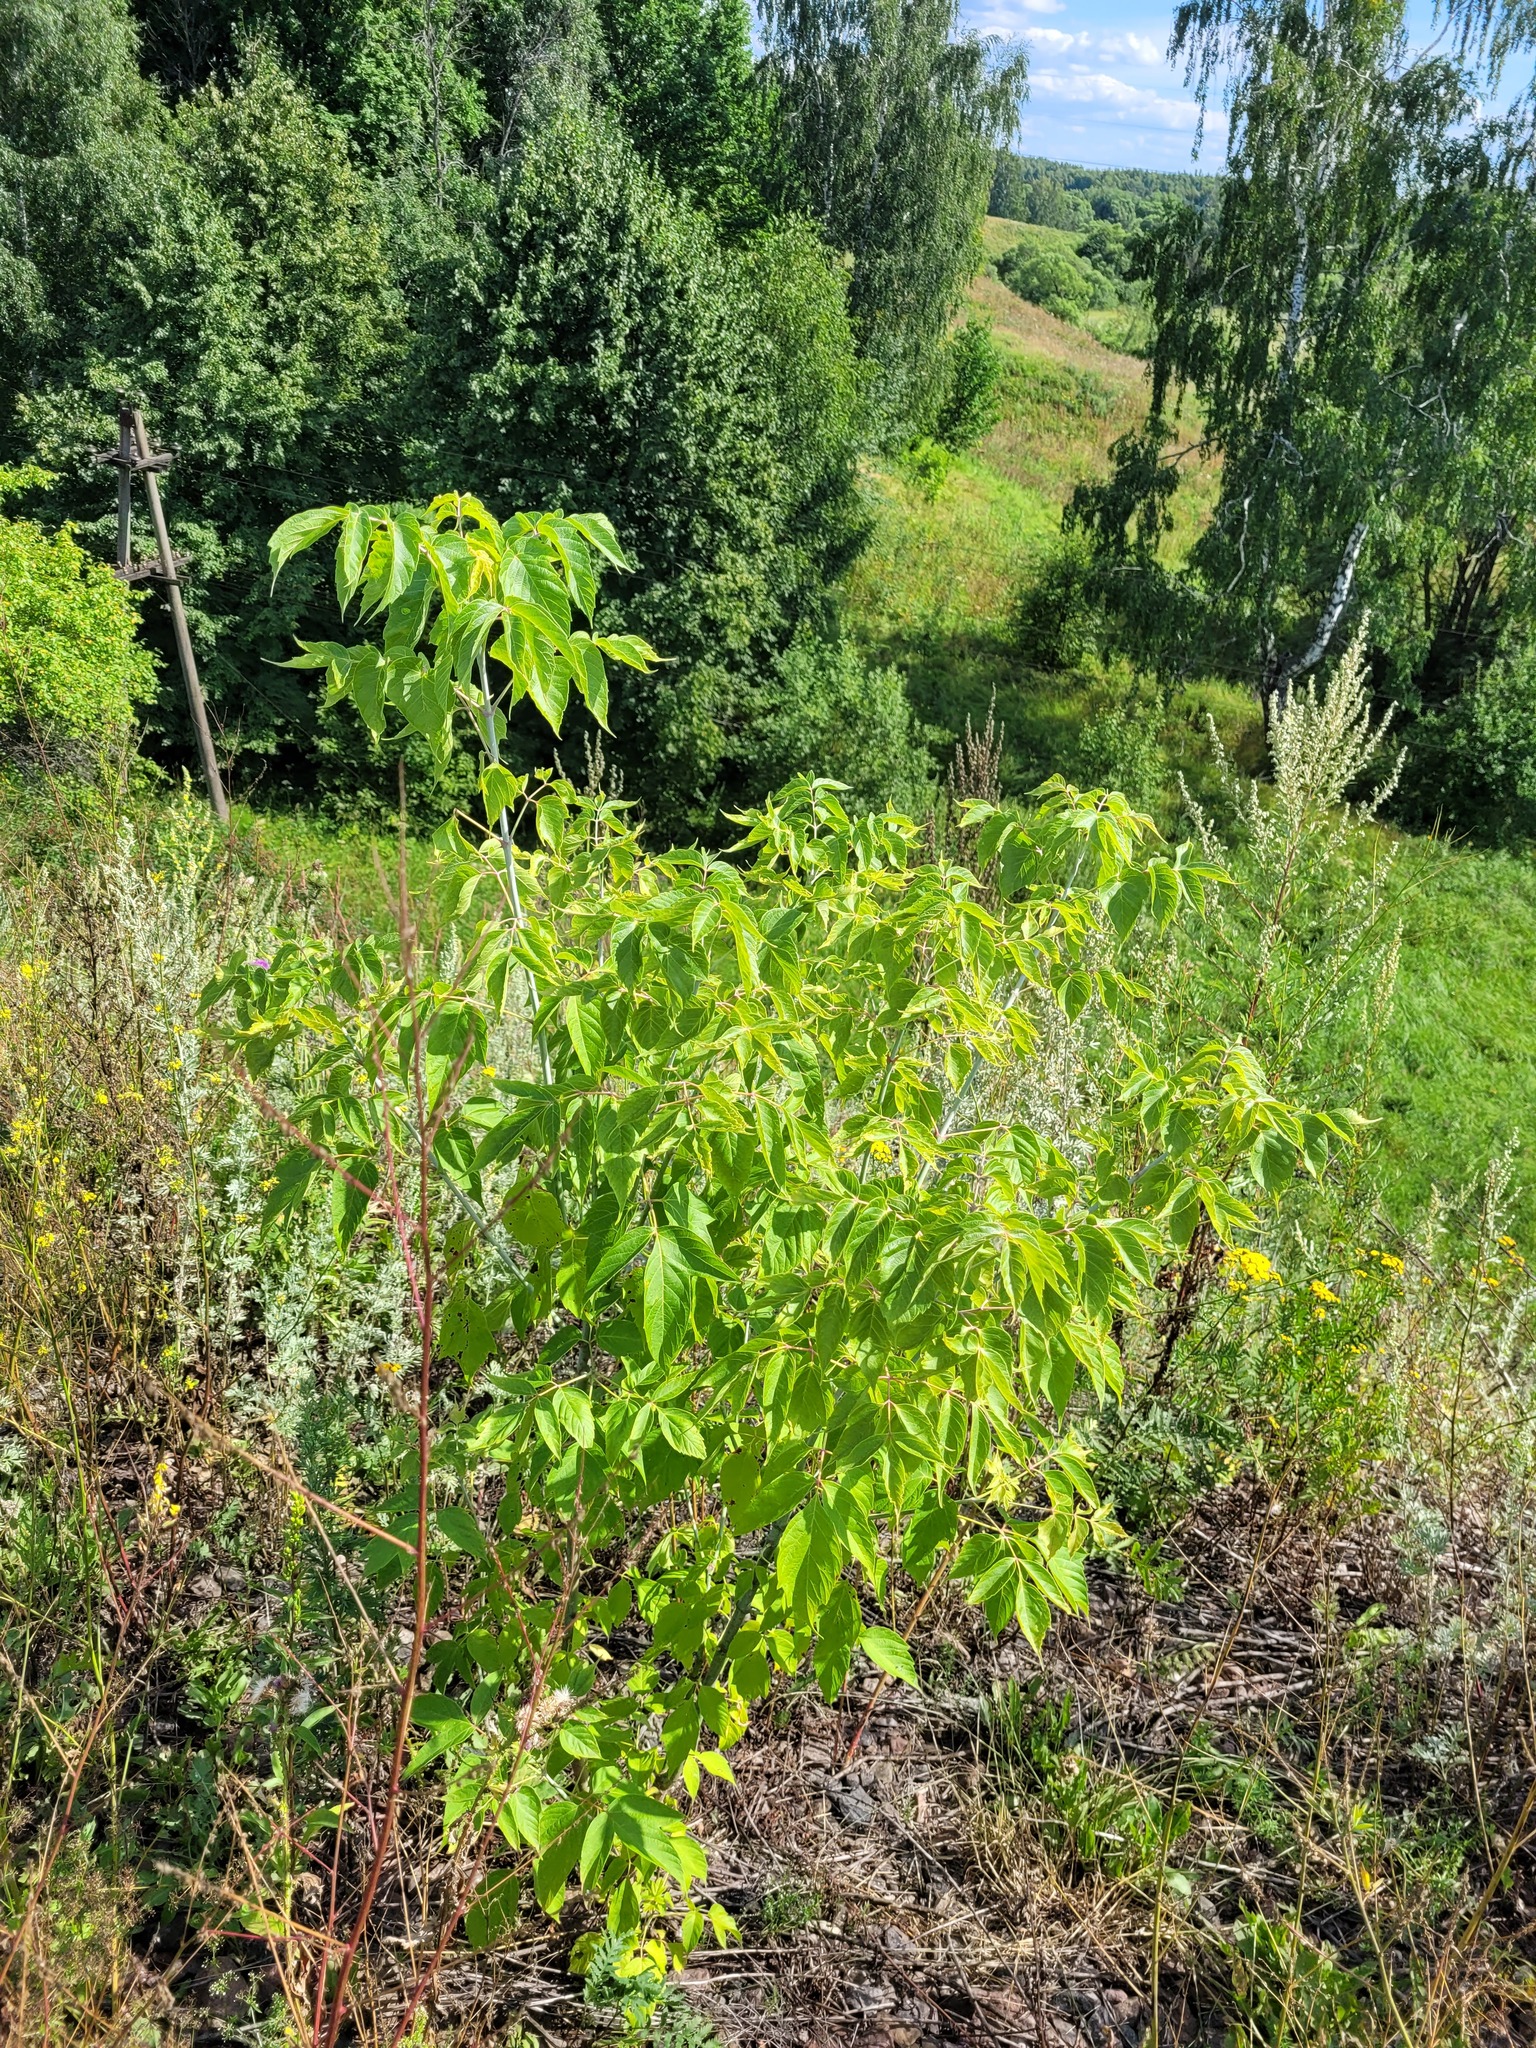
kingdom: Plantae
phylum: Tracheophyta
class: Magnoliopsida
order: Sapindales
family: Sapindaceae
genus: Acer
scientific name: Acer negundo
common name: Ashleaf maple
